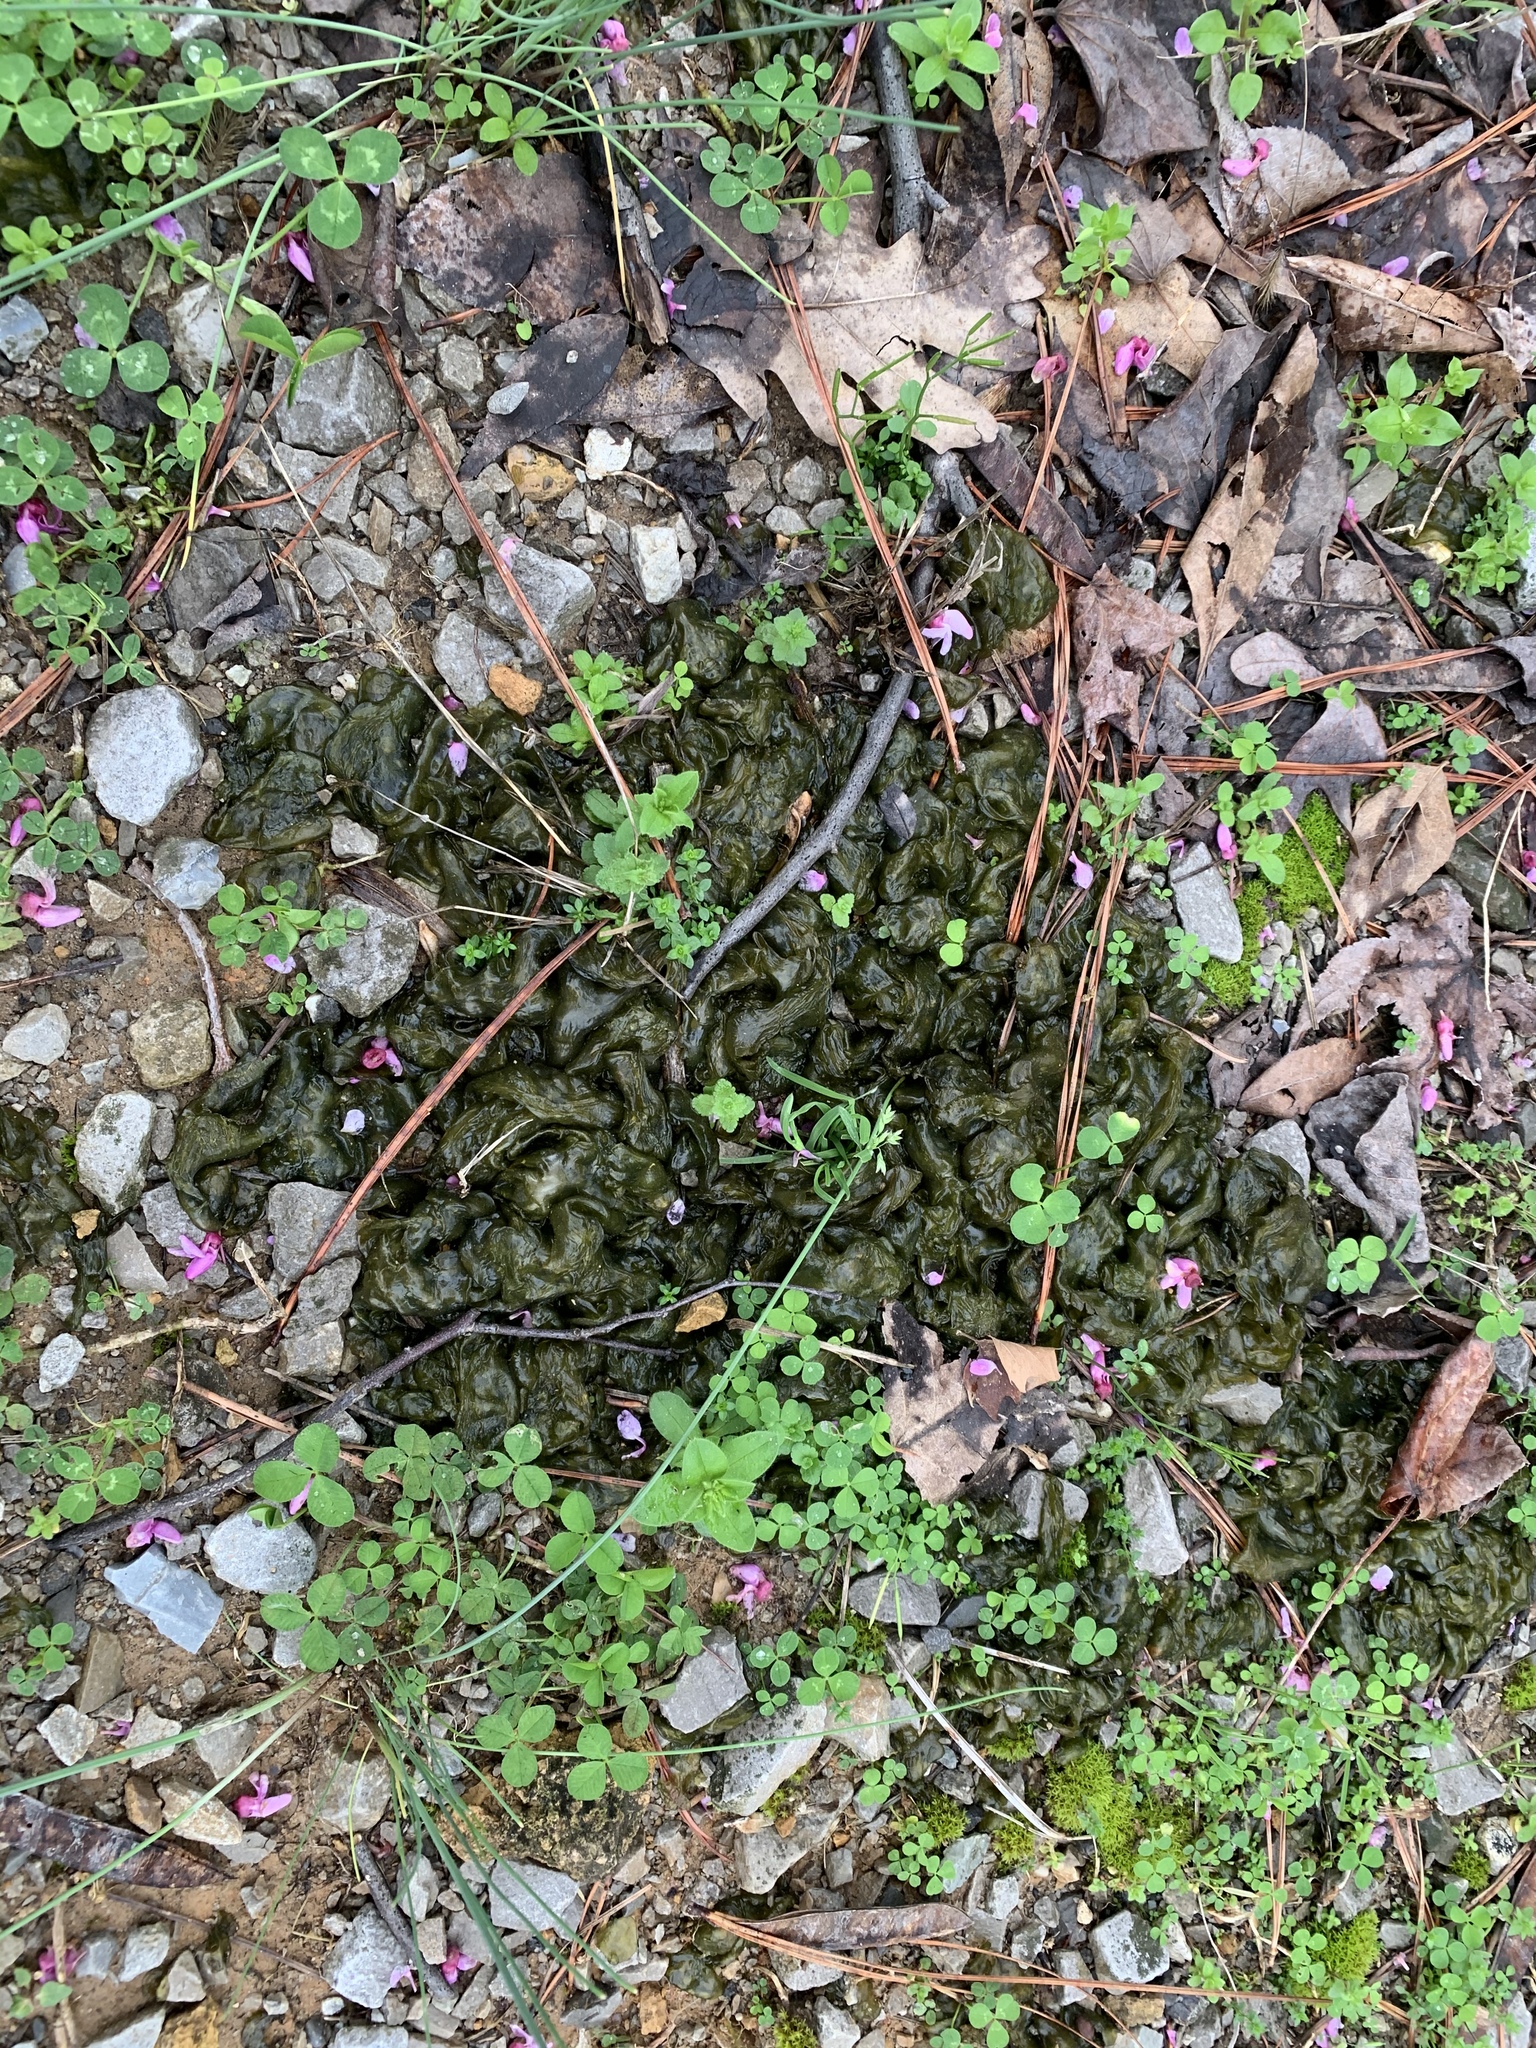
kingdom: Bacteria
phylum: Cyanobacteria
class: Cyanobacteriia
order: Cyanobacteriales
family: Nostocaceae
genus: Nostoc
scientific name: Nostoc commune
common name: Star jelly
